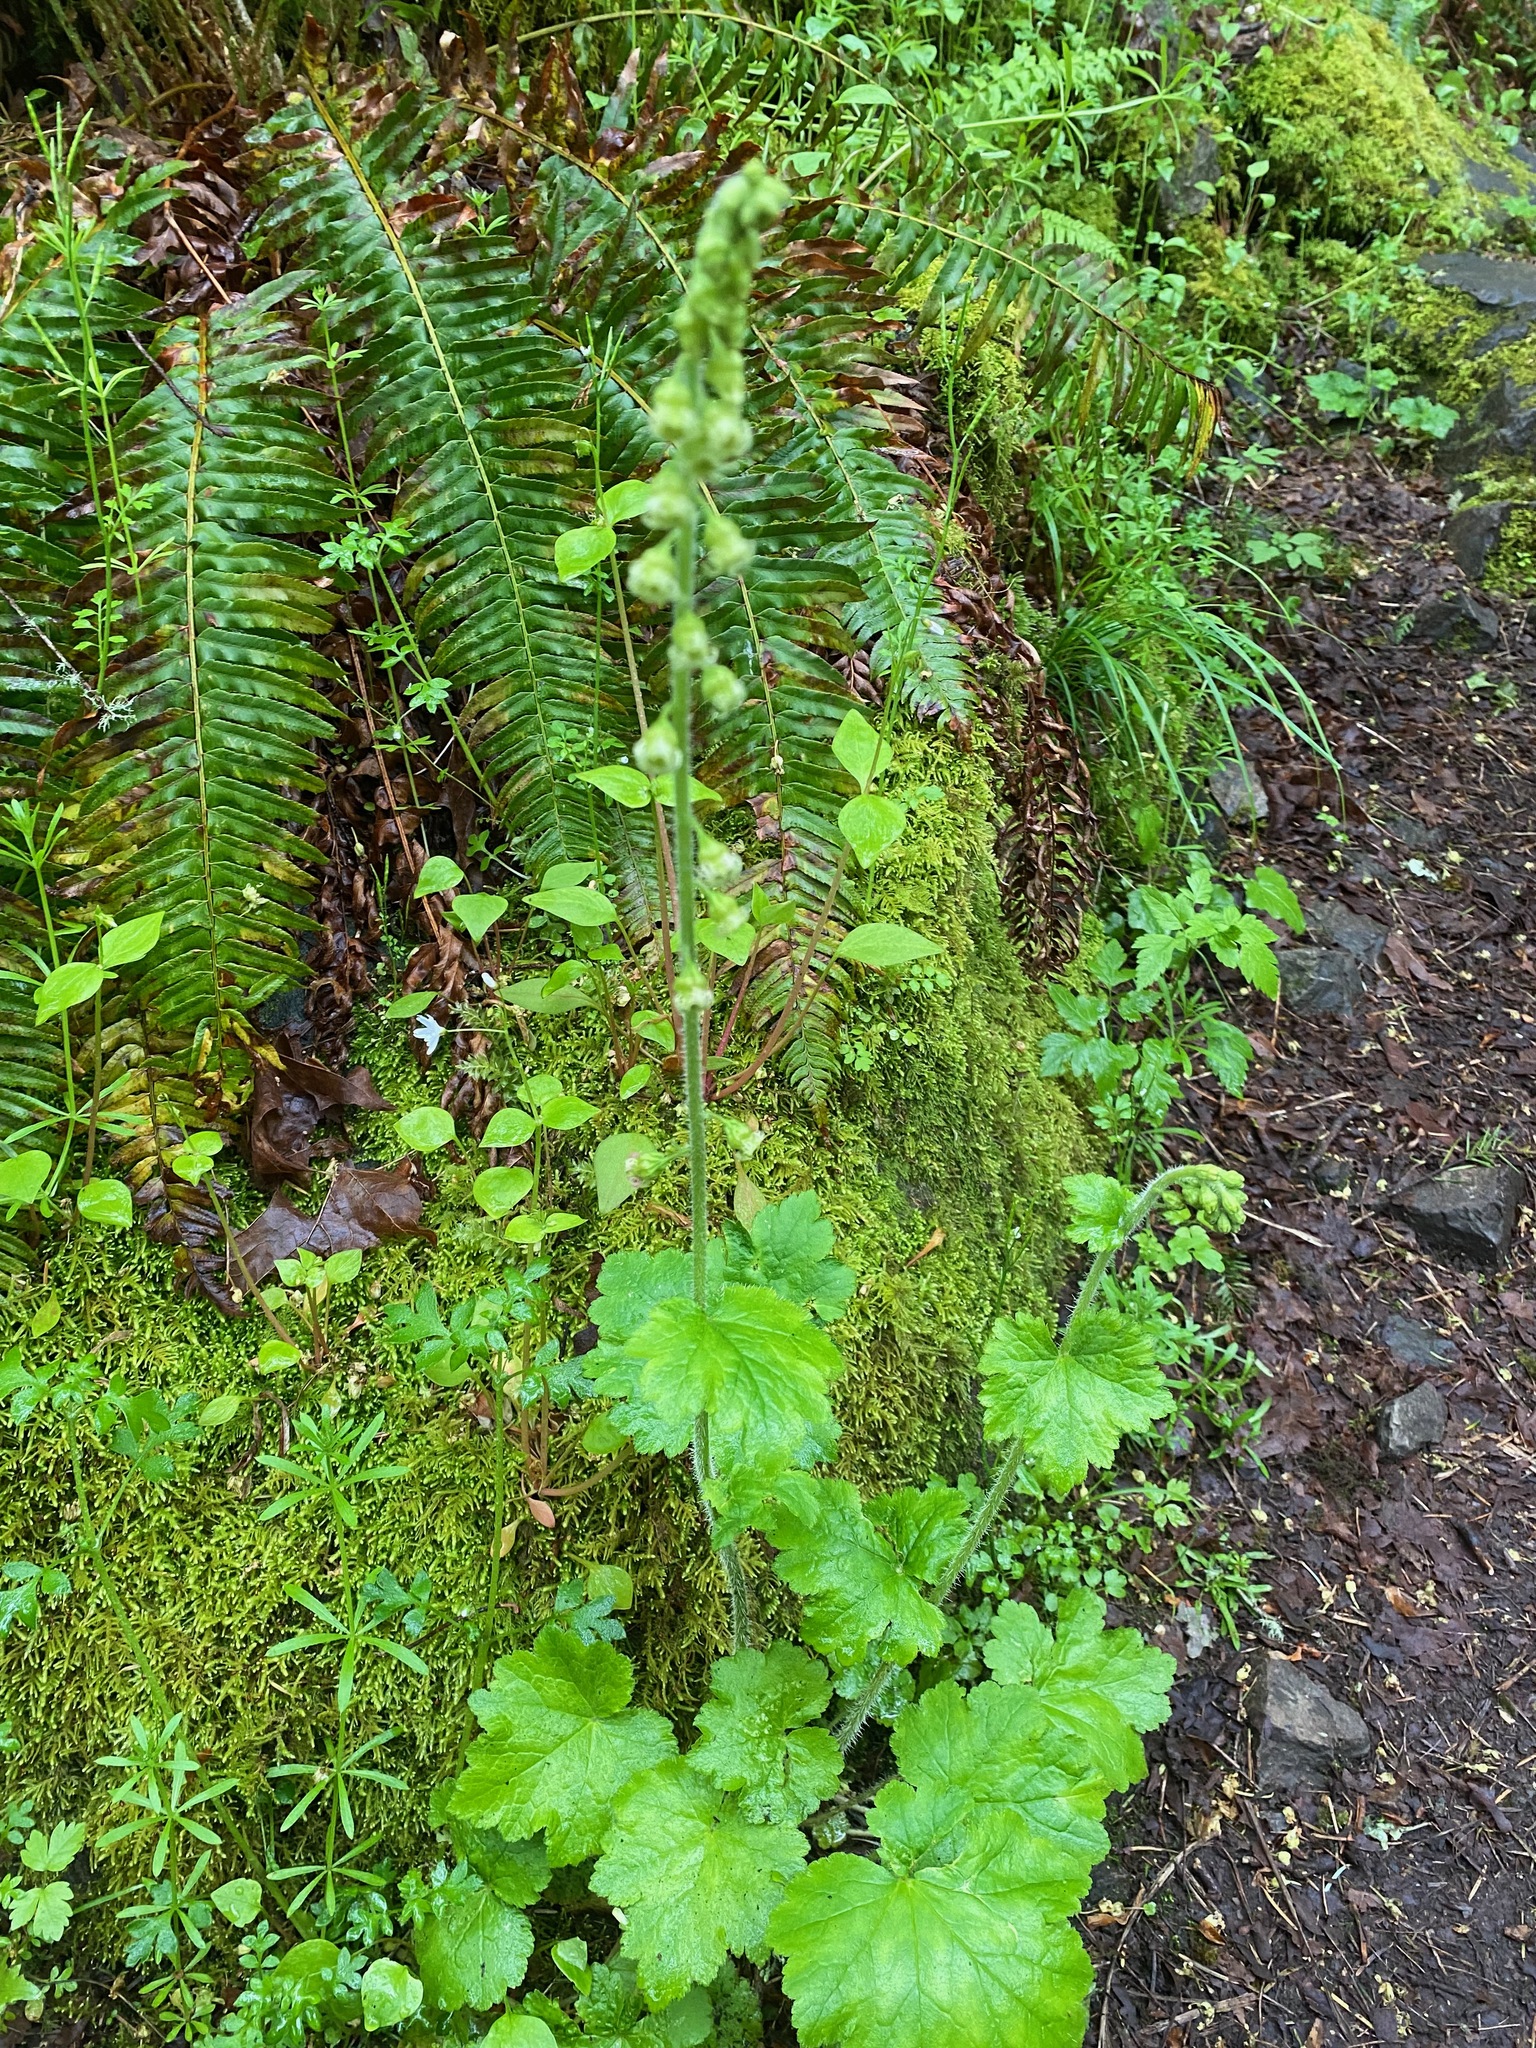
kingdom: Plantae
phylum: Tracheophyta
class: Magnoliopsida
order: Saxifragales
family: Saxifragaceae
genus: Tellima
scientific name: Tellima grandiflora
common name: Fringecups
